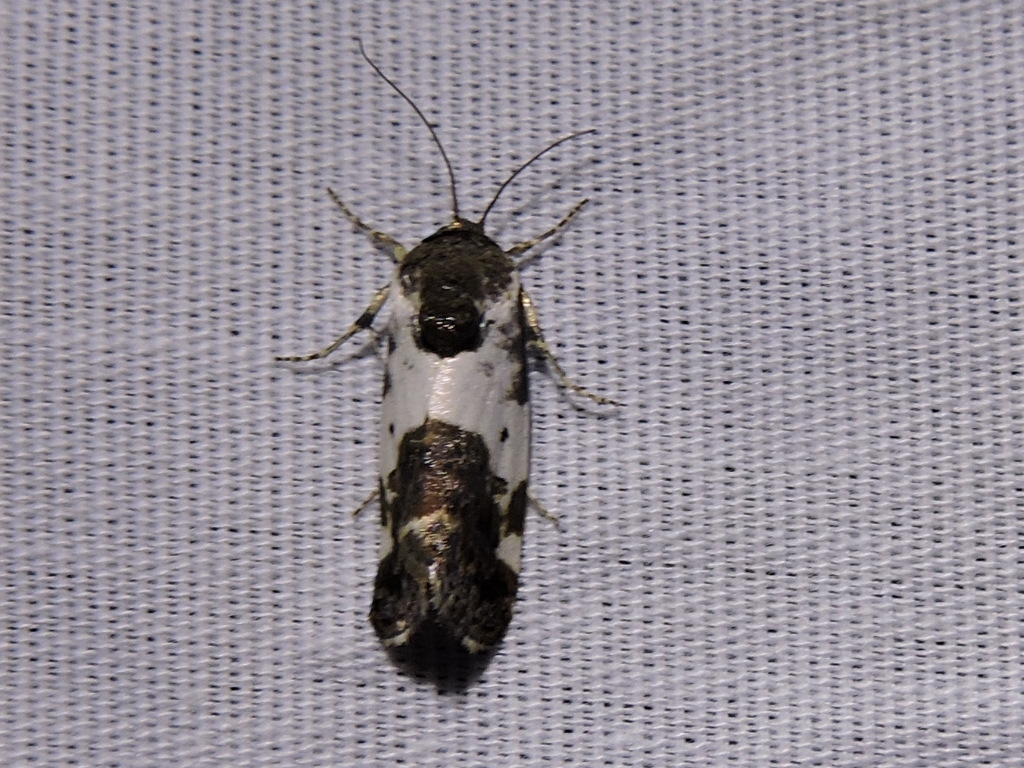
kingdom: Animalia
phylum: Arthropoda
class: Insecta
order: Lepidoptera
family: Noctuidae
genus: Acontia
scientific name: Acontia Tarache abdominalis
